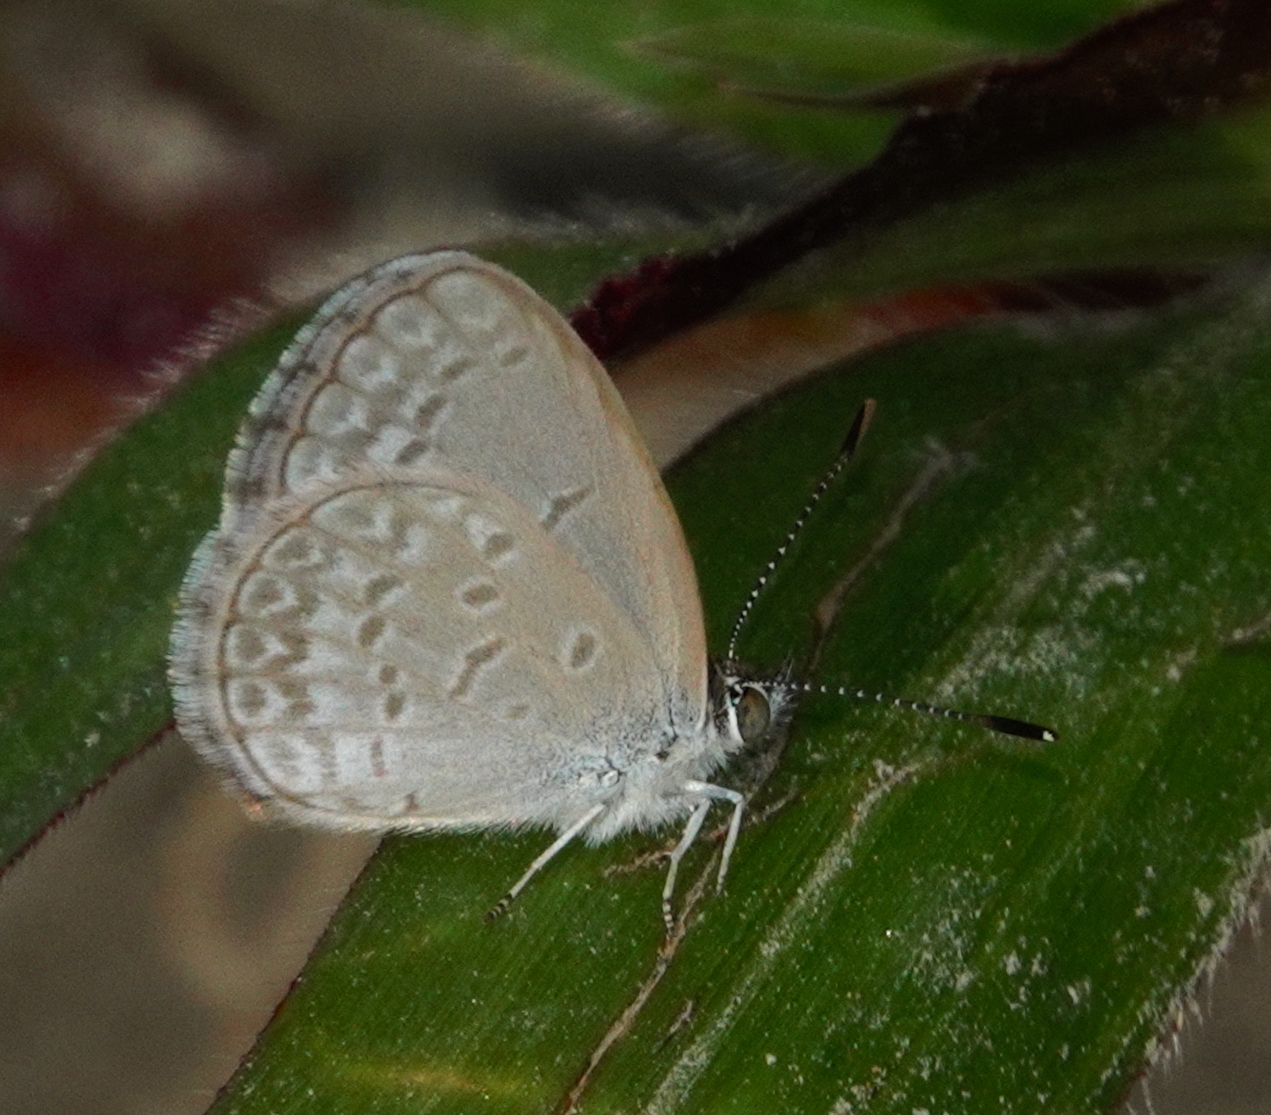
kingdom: Animalia
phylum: Arthropoda
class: Insecta
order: Lepidoptera
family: Lycaenidae
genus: Zizina
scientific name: Zizina otis
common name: Lesser grass blue
